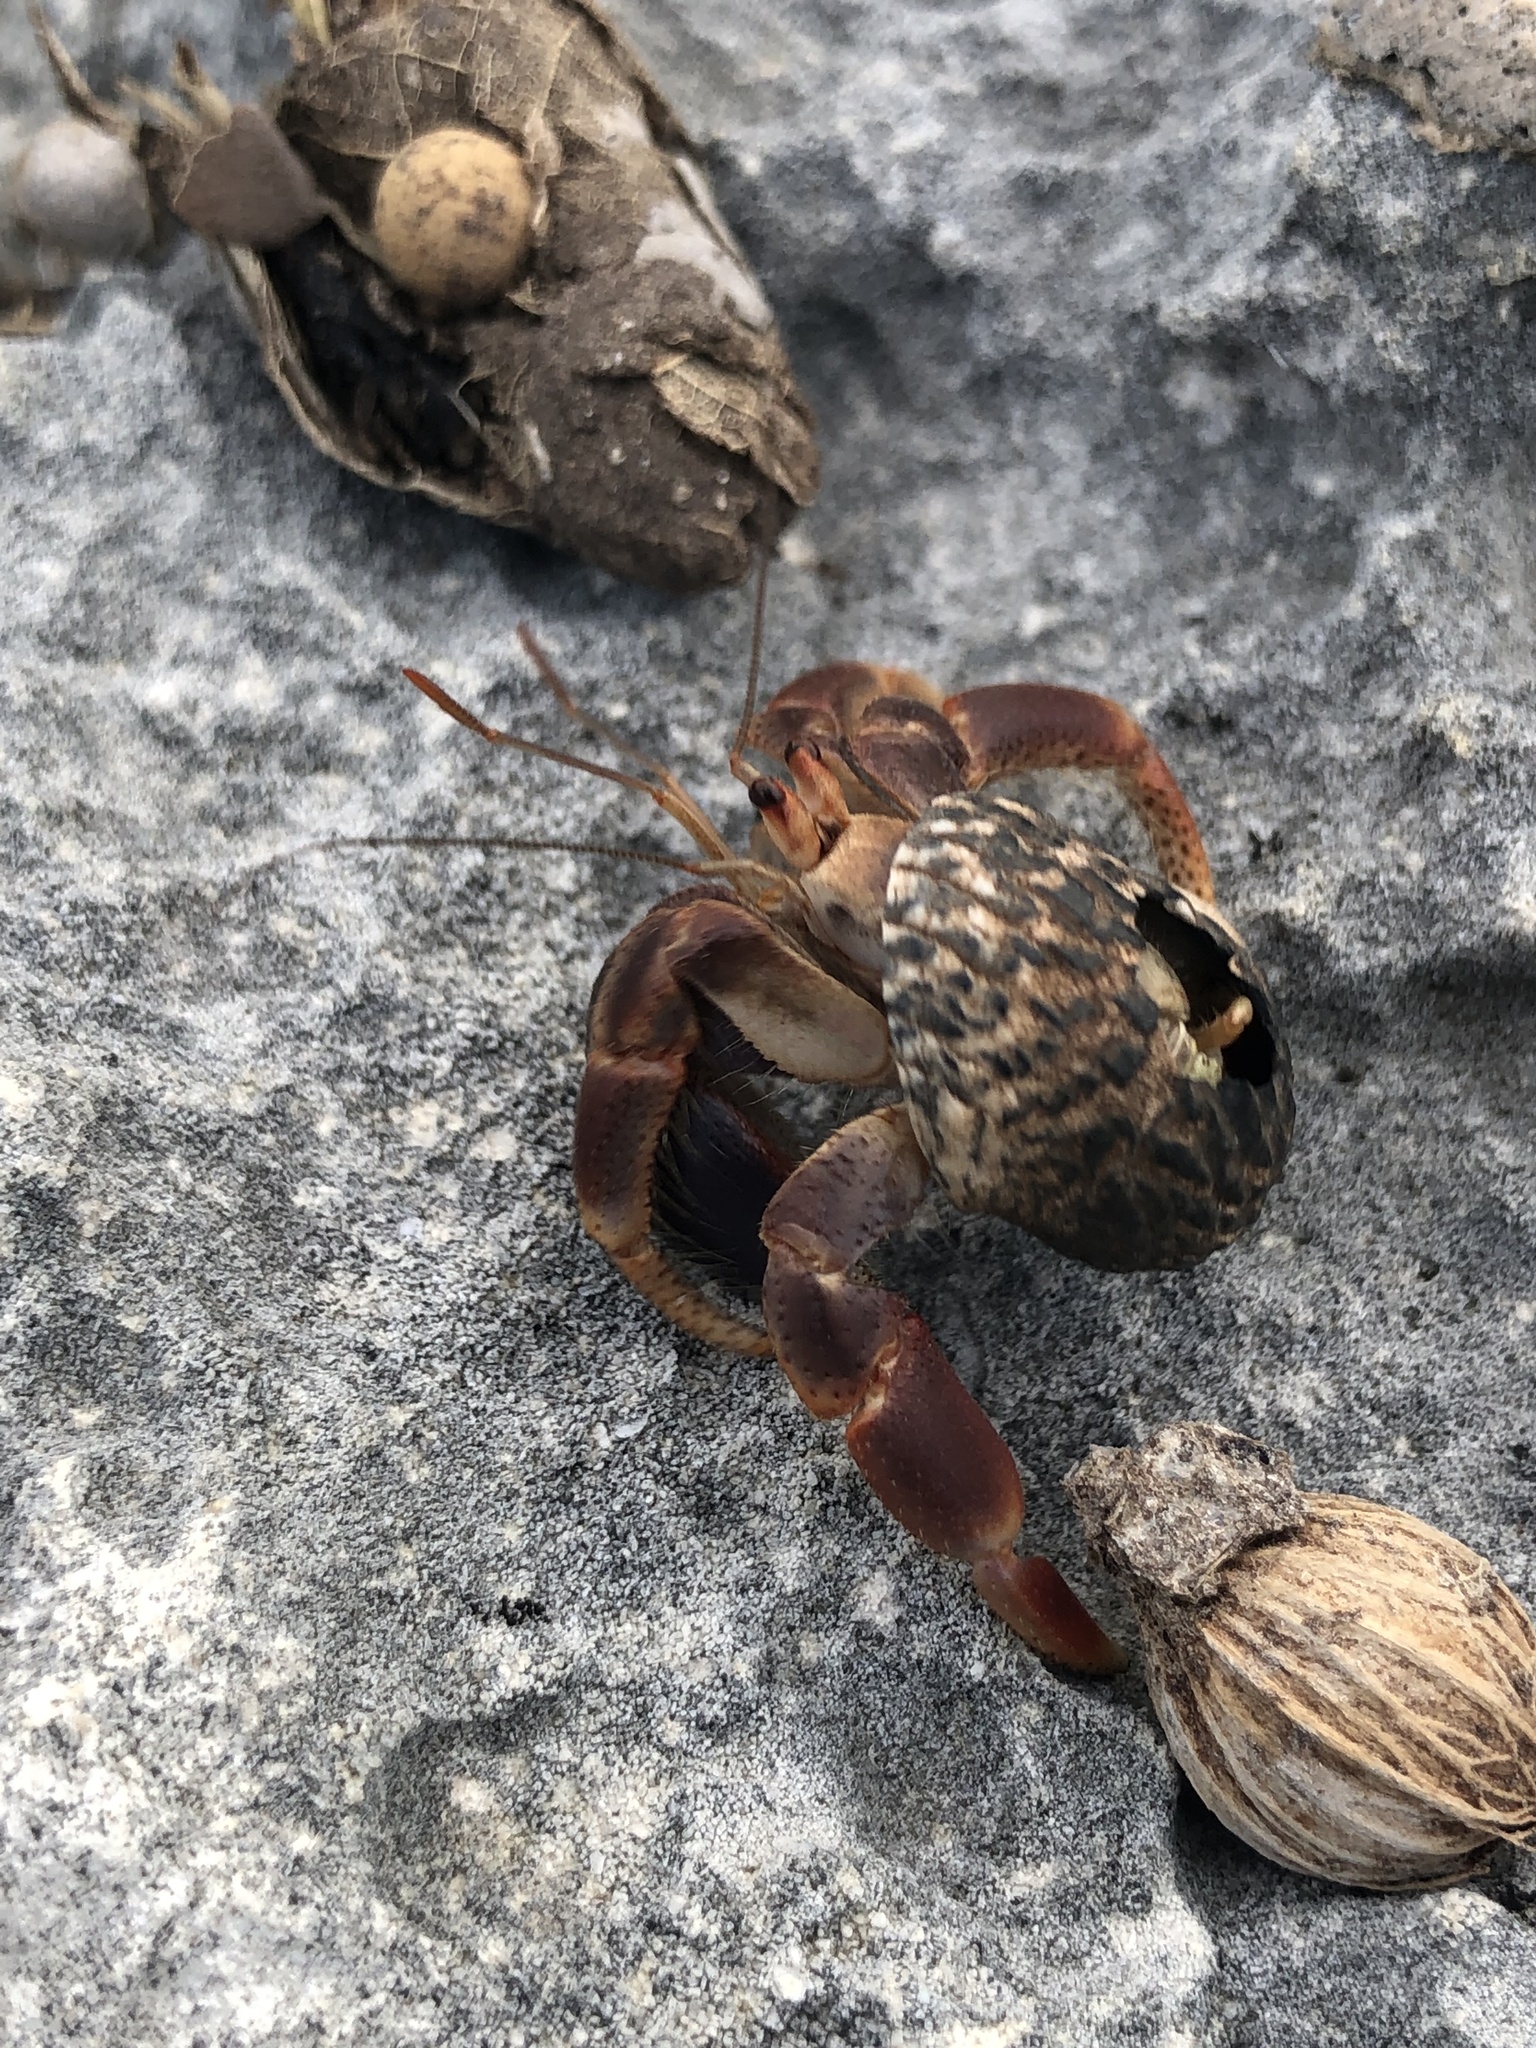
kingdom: Animalia
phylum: Arthropoda
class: Malacostraca
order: Decapoda
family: Coenobitidae
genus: Coenobita
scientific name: Coenobita clypeatus
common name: Caribbean hermit crab
